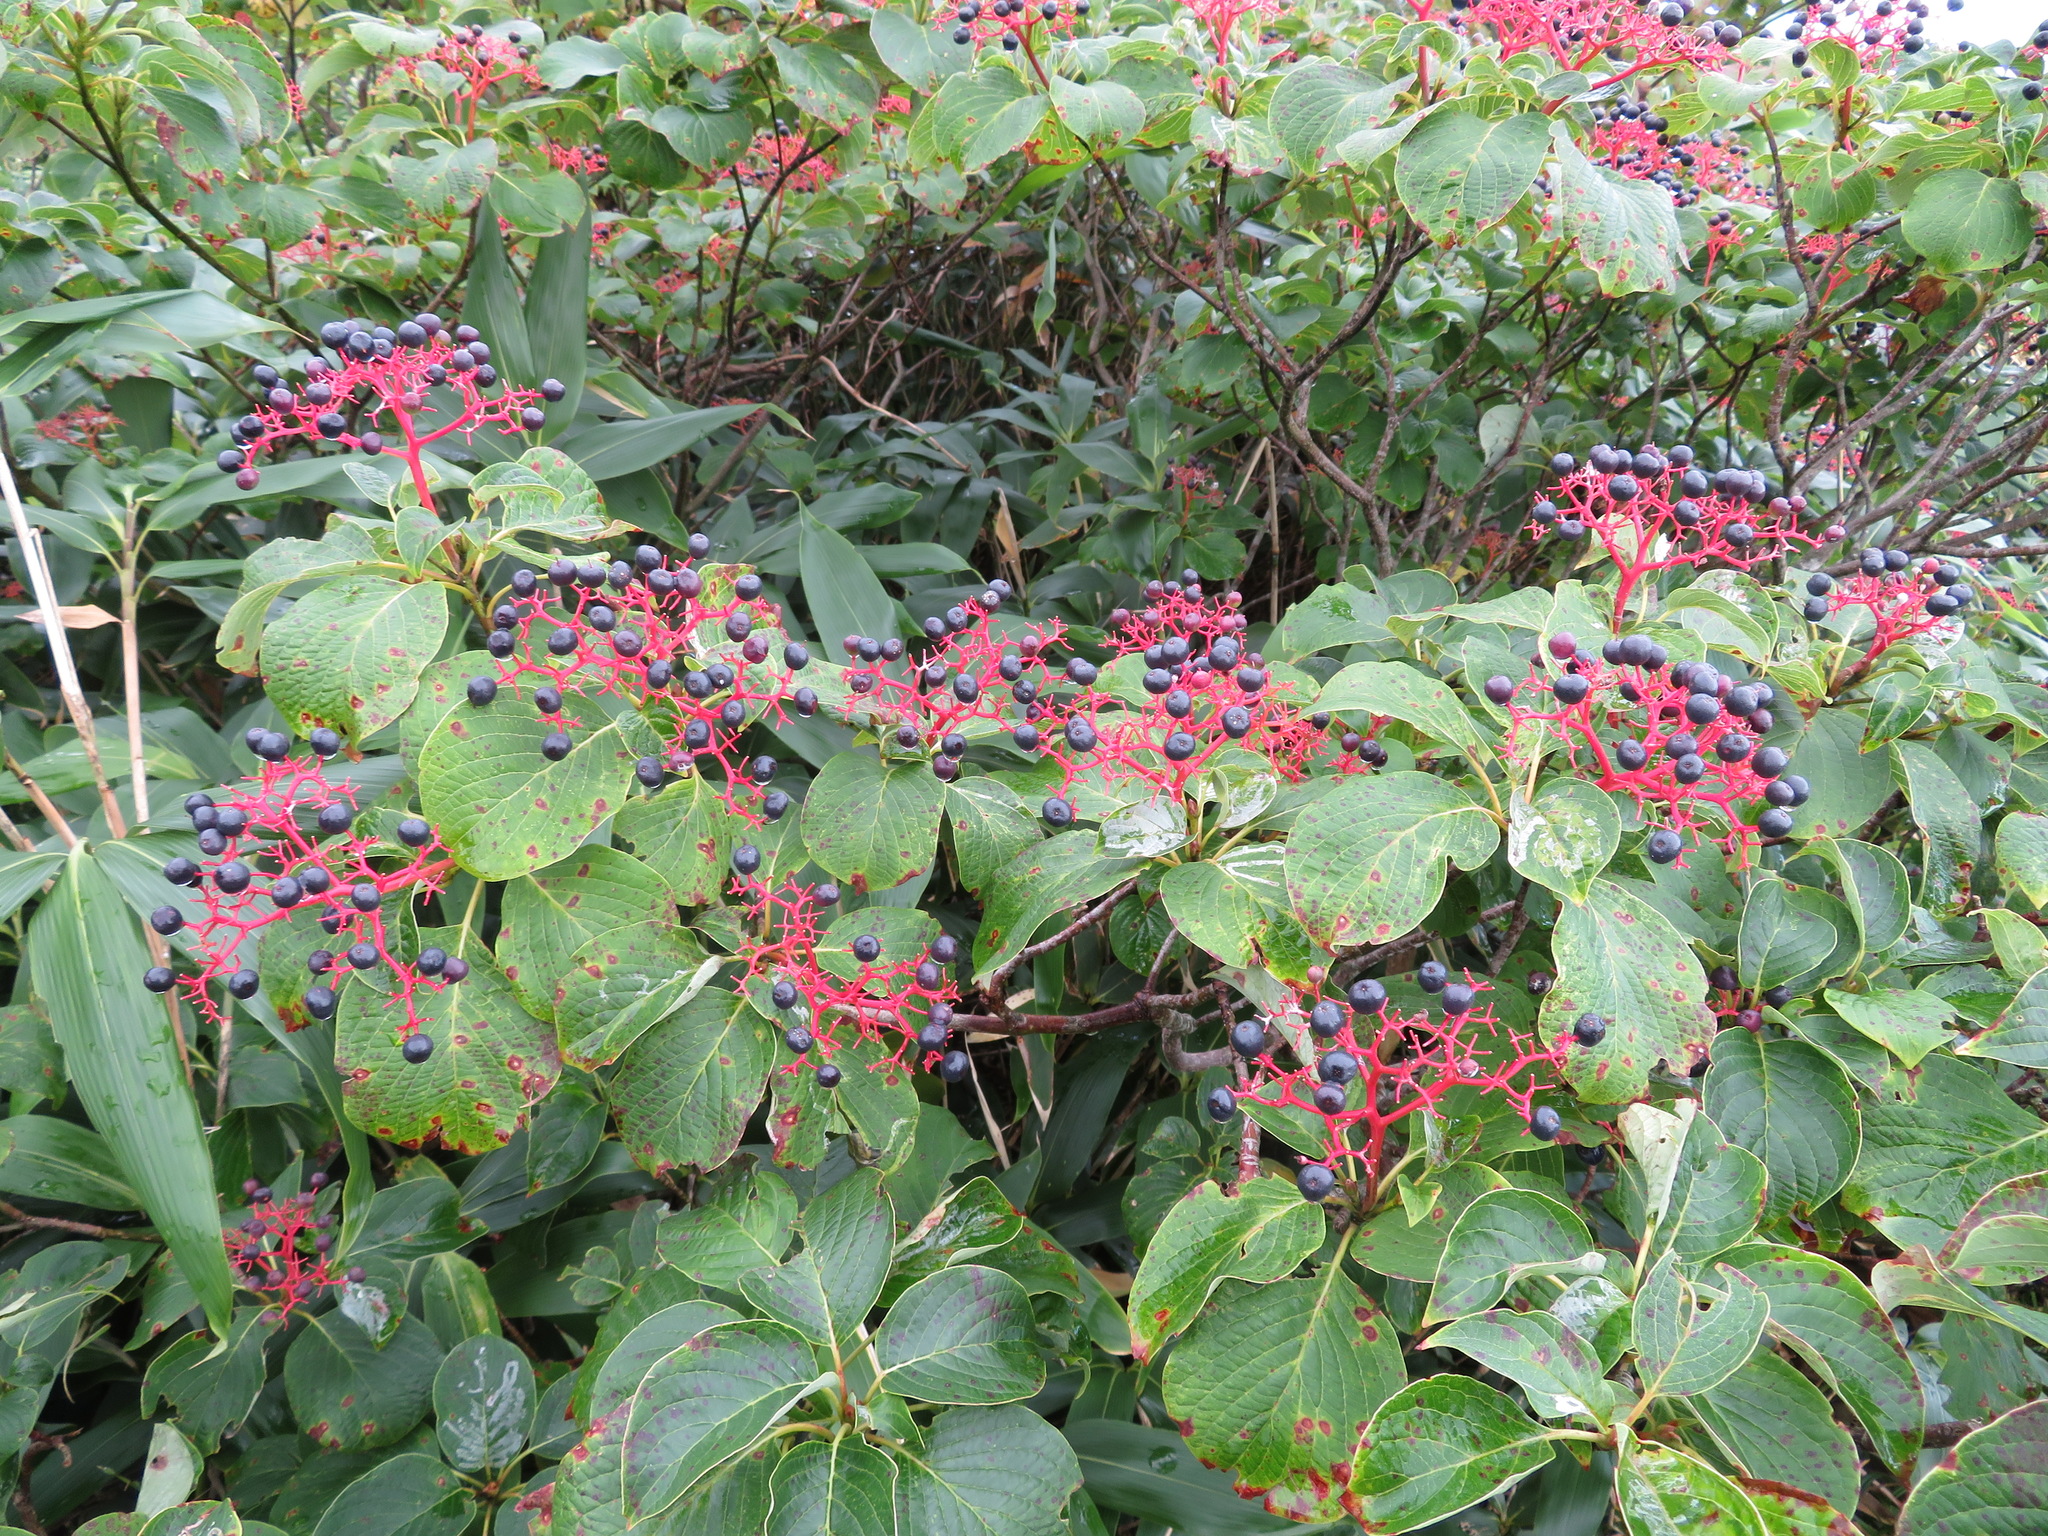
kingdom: Plantae
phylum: Tracheophyta
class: Magnoliopsida
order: Cornales
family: Cornaceae
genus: Cornus
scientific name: Cornus controversa
